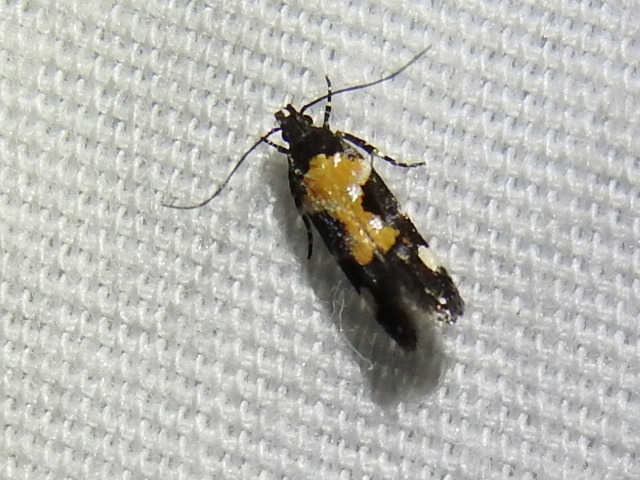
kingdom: Animalia
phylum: Arthropoda
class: Insecta
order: Lepidoptera
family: Gelechiidae
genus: Stegasta
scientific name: Stegasta bosqueella
